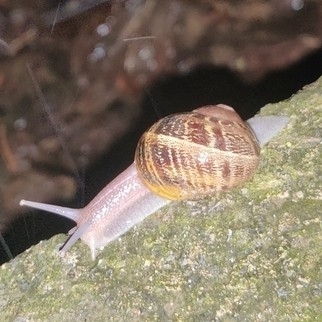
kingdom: Animalia
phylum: Mollusca
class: Gastropoda
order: Stylommatophora
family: Helicidae
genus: Cornu
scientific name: Cornu aspersum
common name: Brown garden snail
